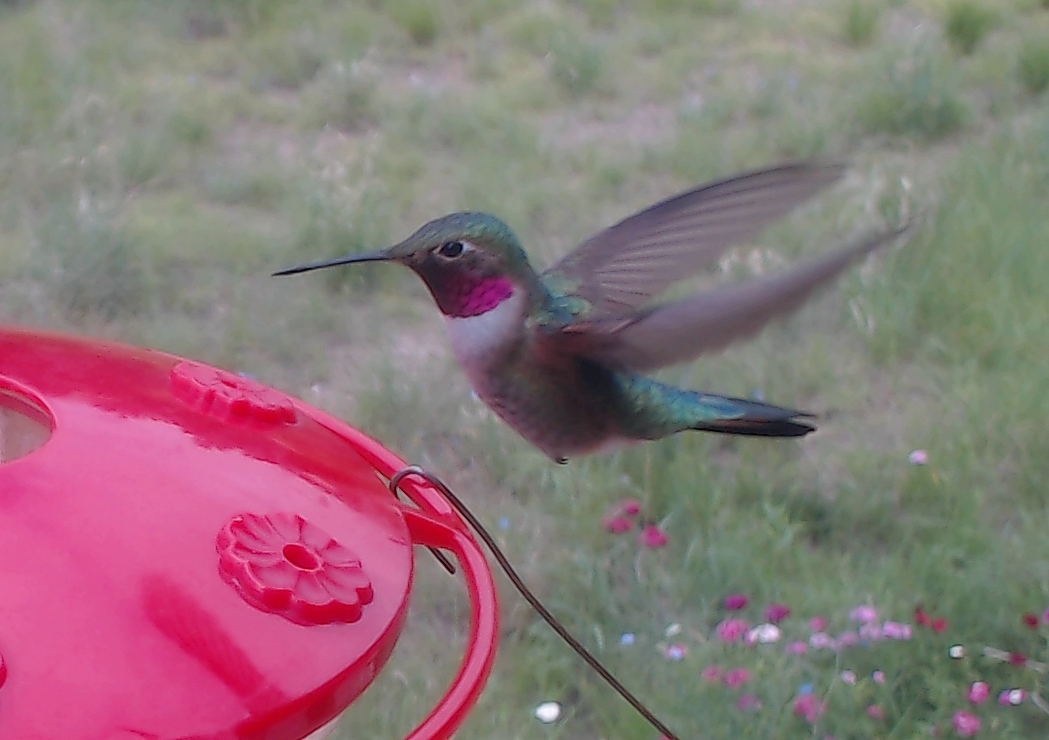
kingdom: Animalia
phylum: Chordata
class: Aves
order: Apodiformes
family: Trochilidae
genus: Selasphorus
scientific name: Selasphorus platycercus
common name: Broad-tailed hummingbird
